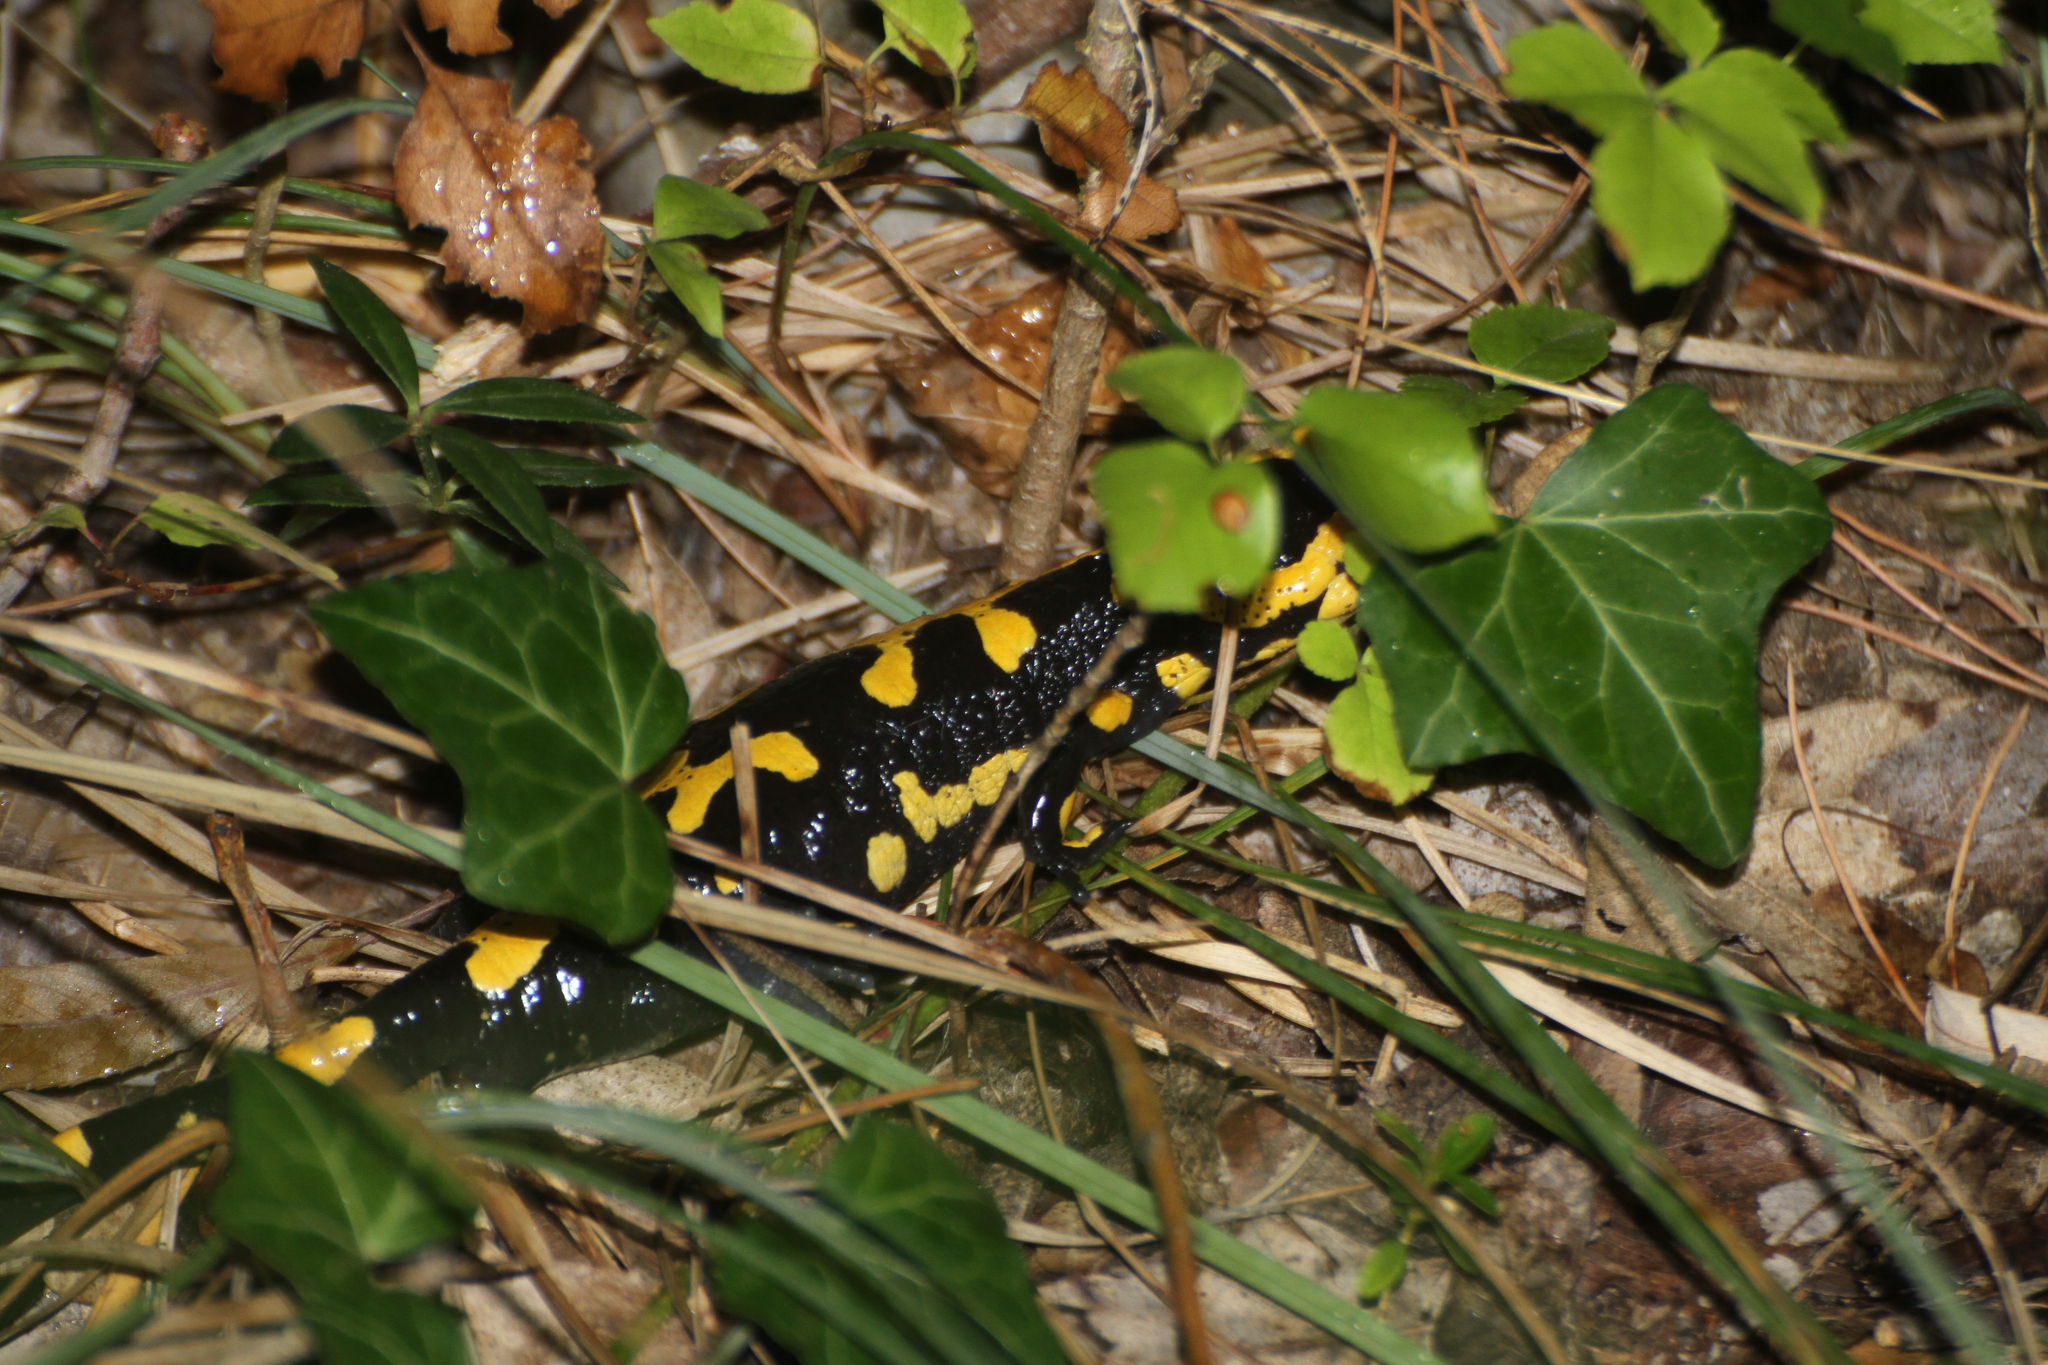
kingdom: Animalia
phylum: Chordata
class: Amphibia
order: Caudata
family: Salamandridae
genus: Salamandra
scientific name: Salamandra salamandra
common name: Fire salamander
